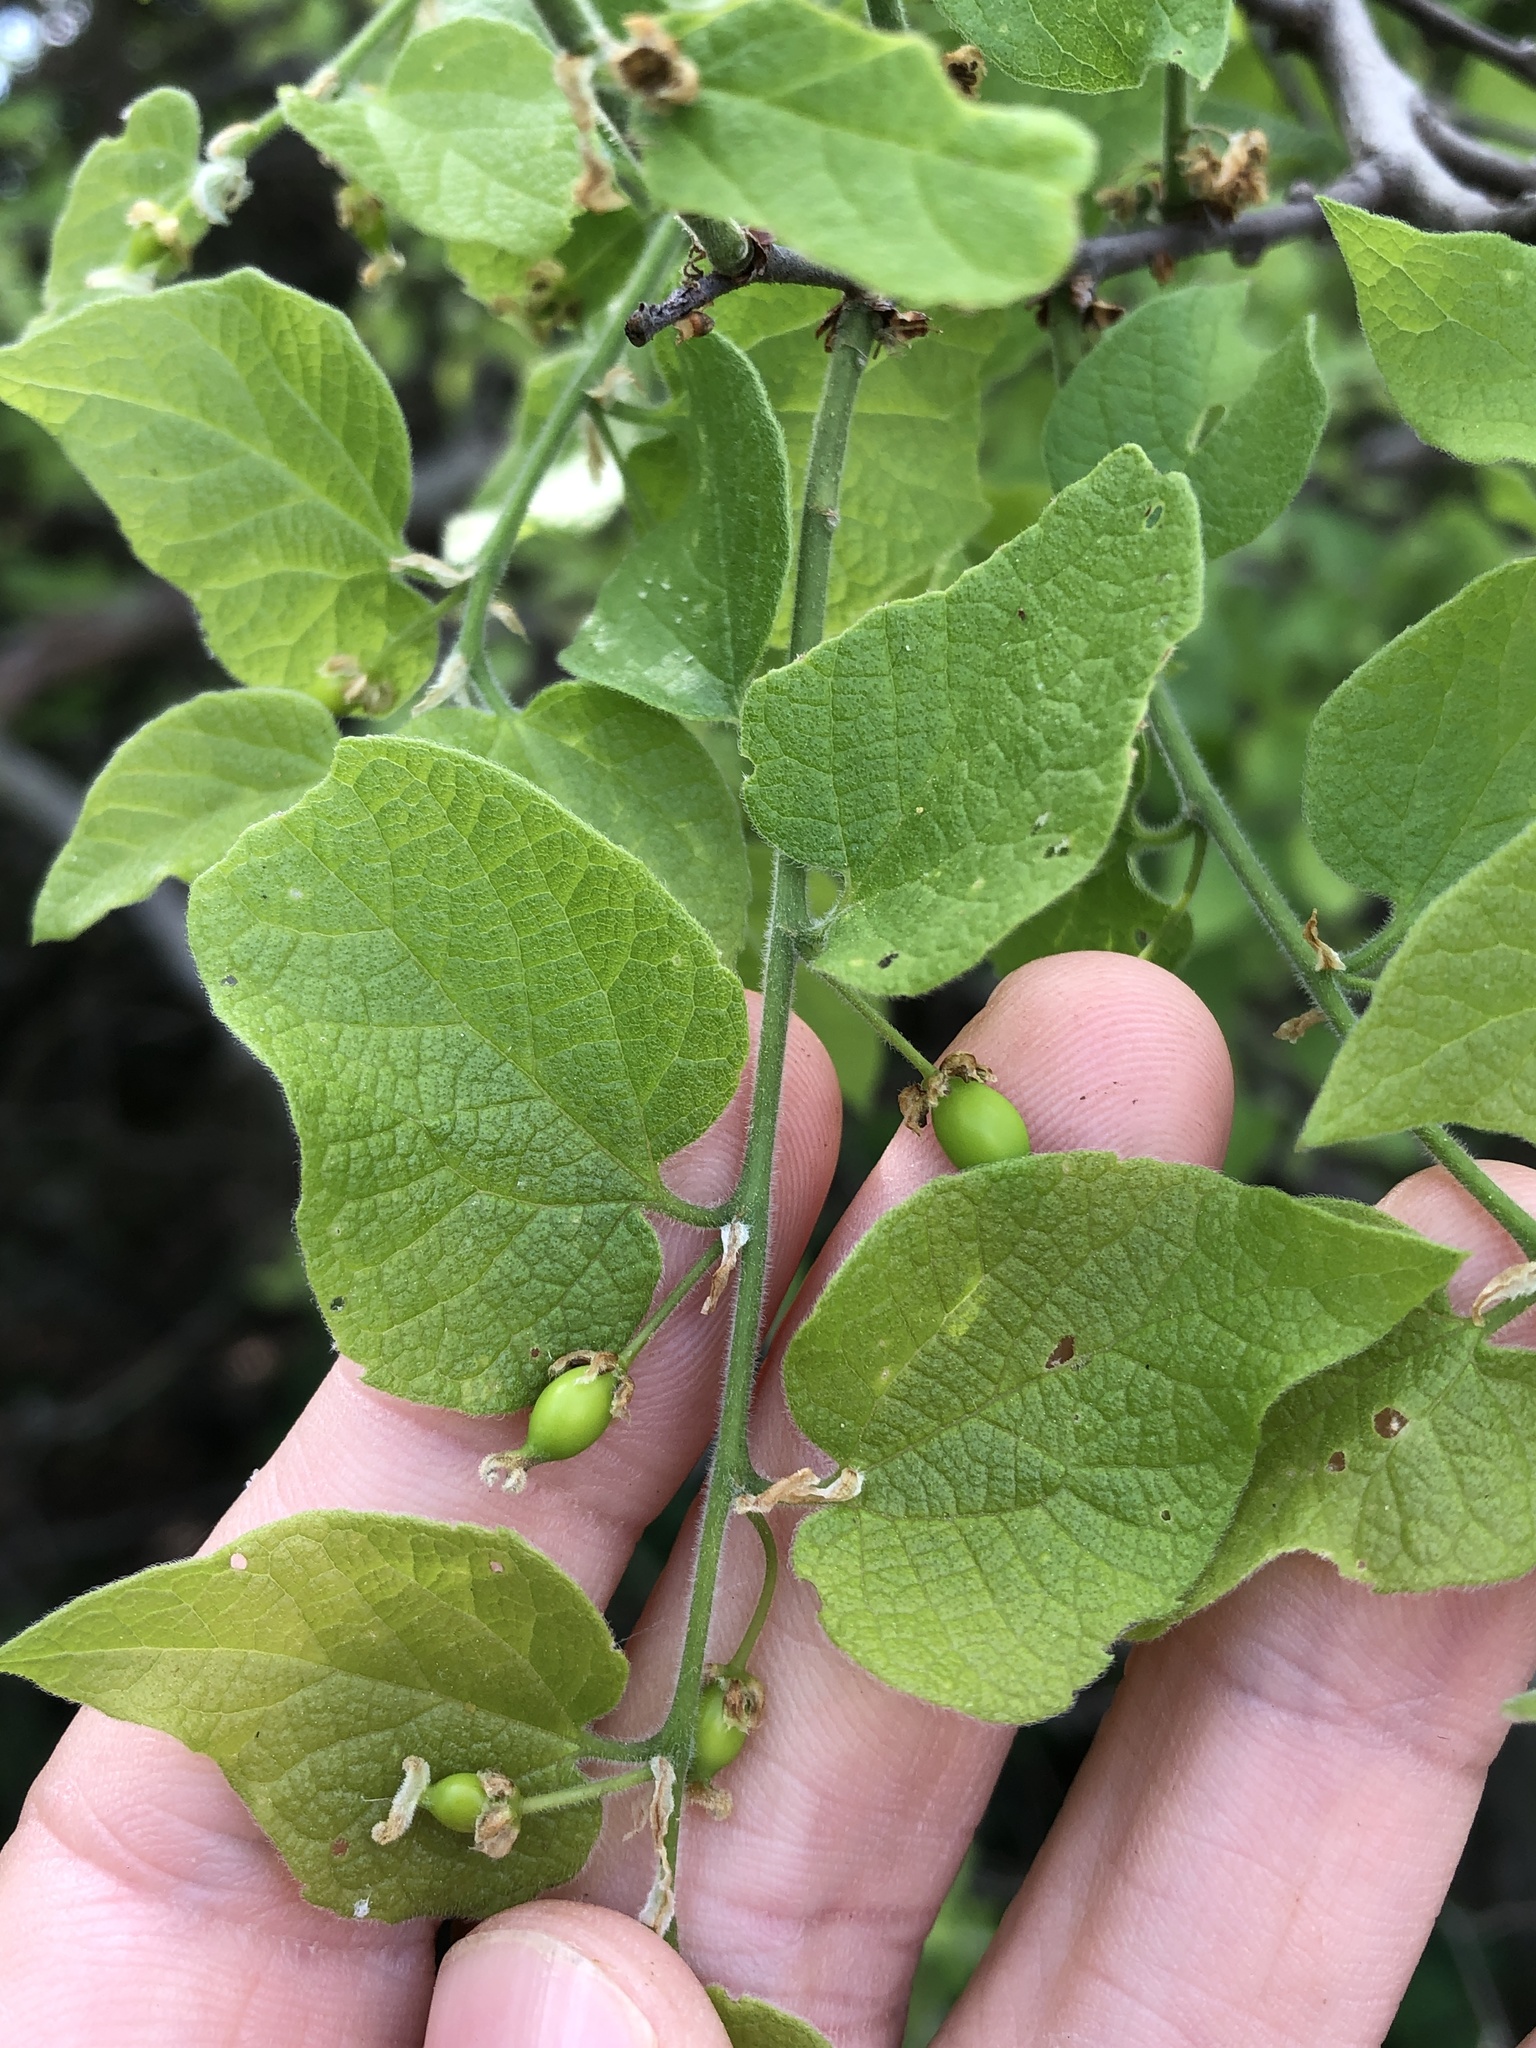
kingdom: Plantae
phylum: Tracheophyta
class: Magnoliopsida
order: Rosales
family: Cannabaceae
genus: Celtis
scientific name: Celtis reticulata
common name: Netleaf hackberry
